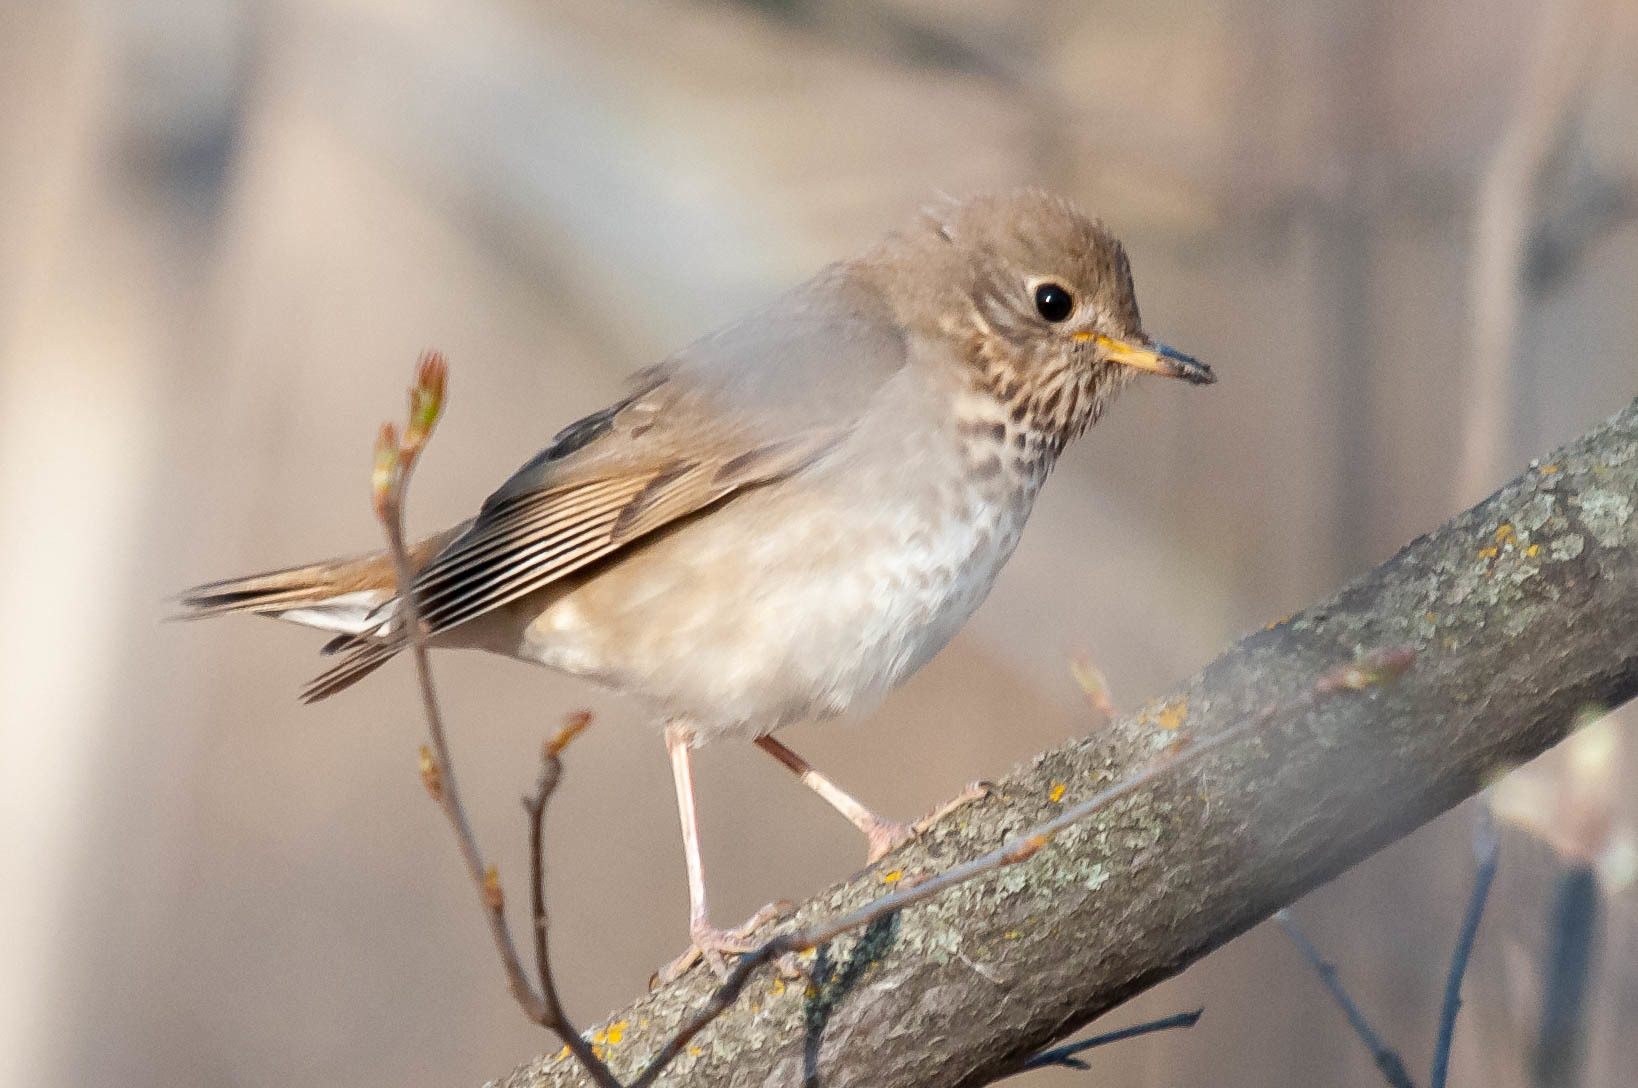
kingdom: Animalia
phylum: Chordata
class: Aves
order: Passeriformes
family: Turdidae
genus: Catharus
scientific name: Catharus guttatus
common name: Hermit thrush
